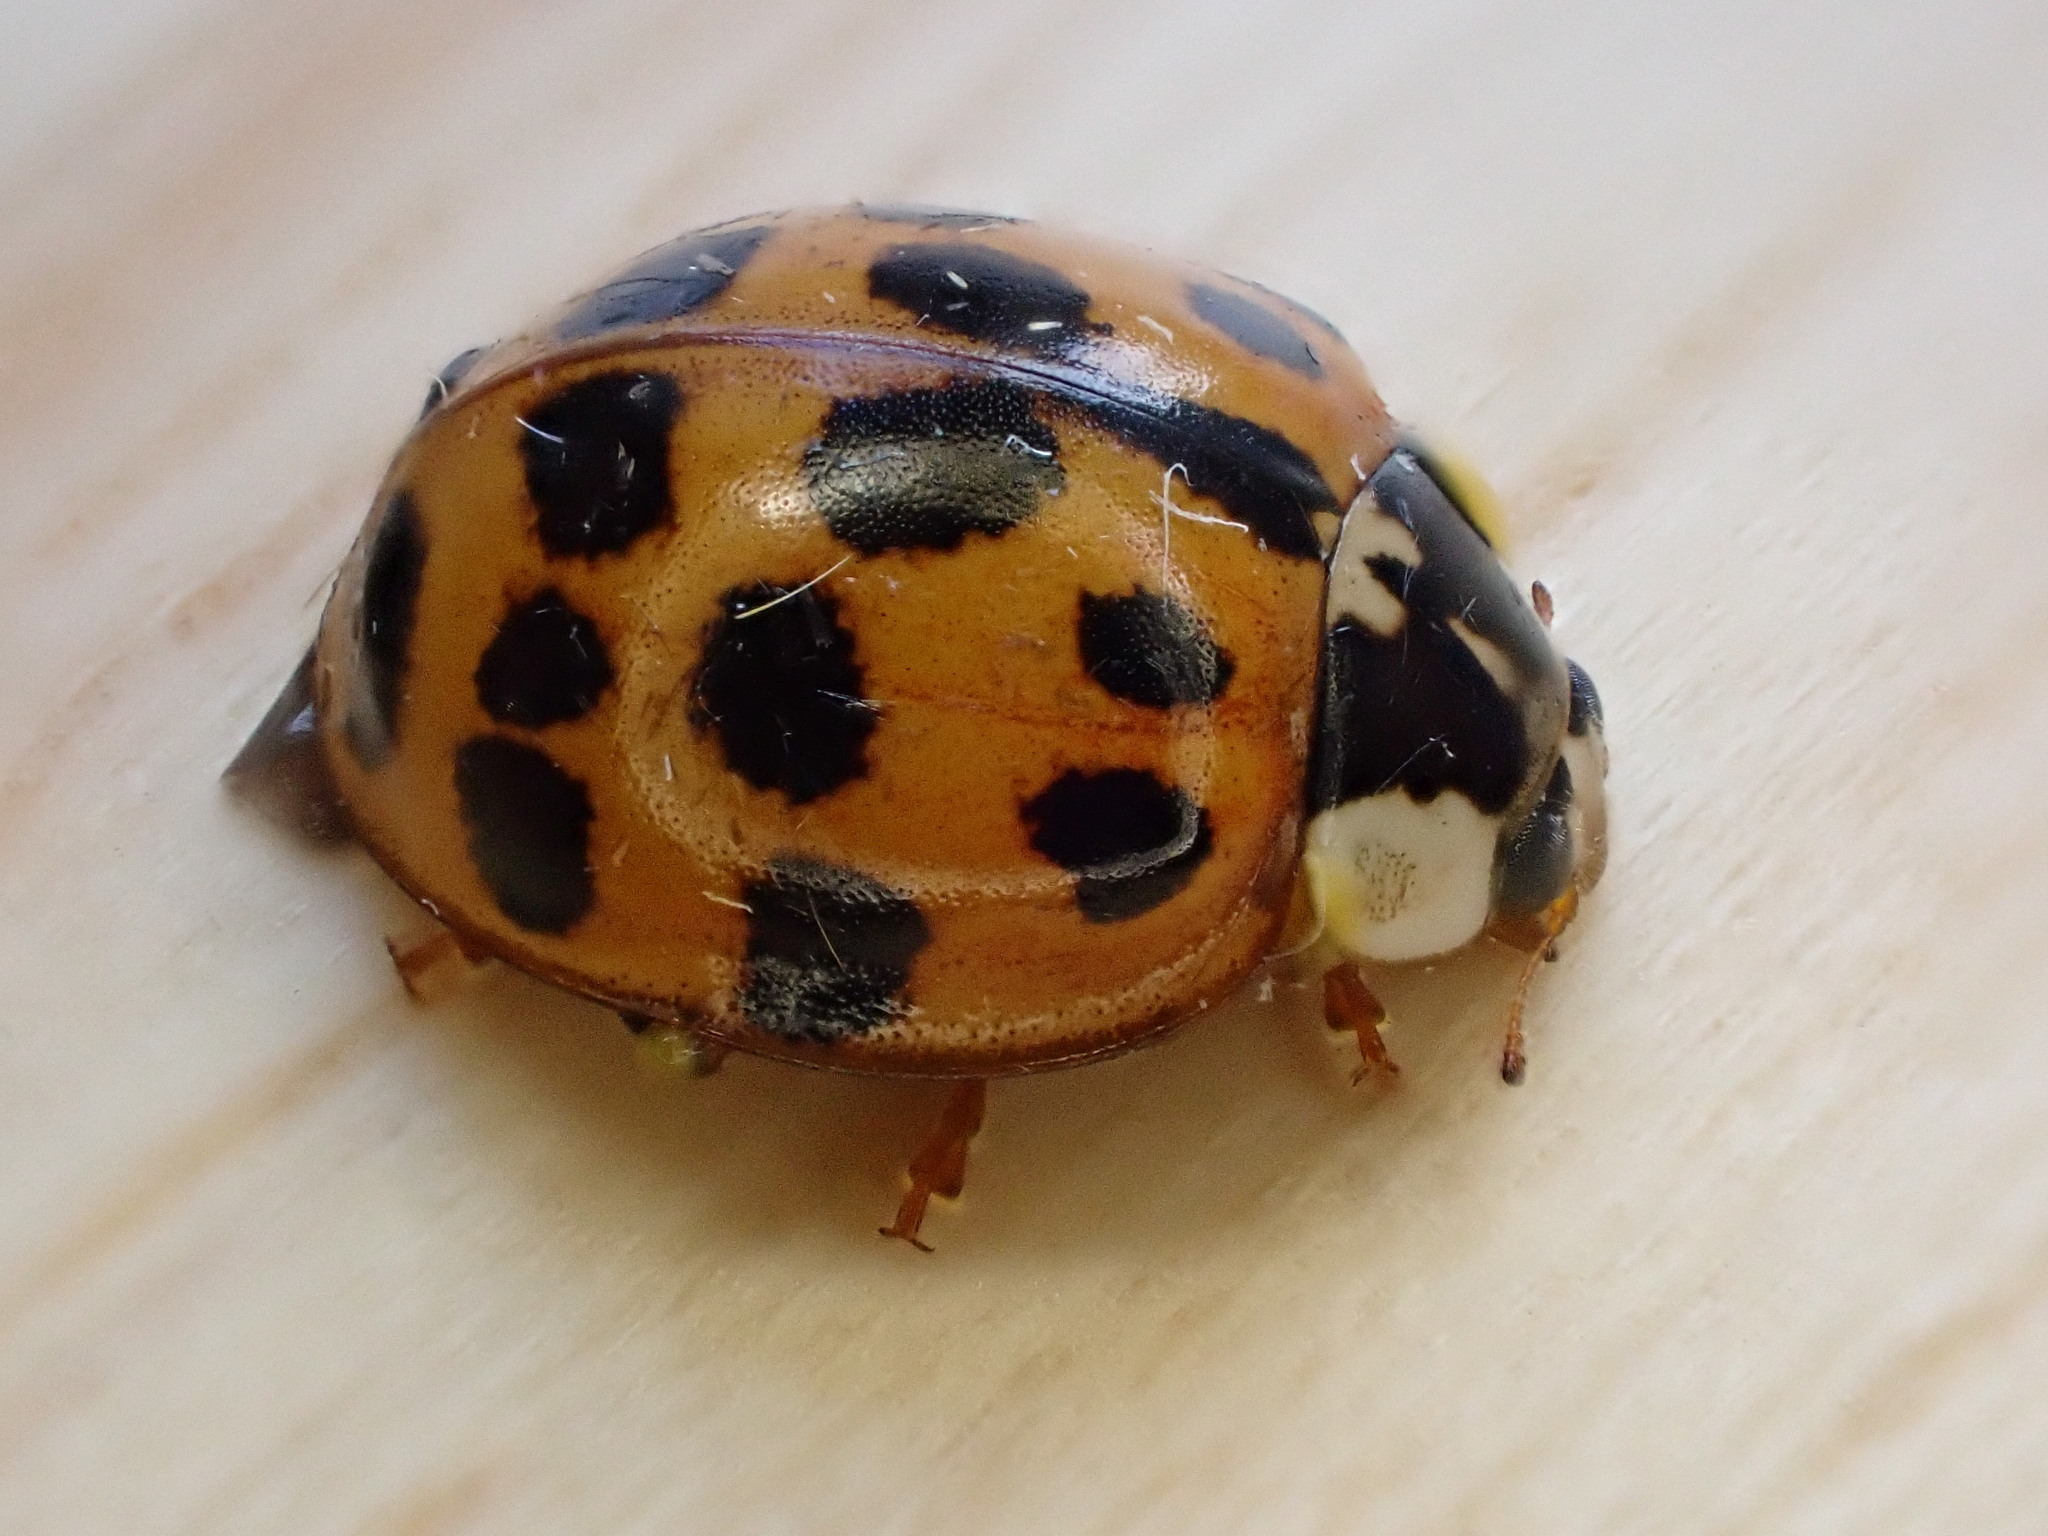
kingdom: Animalia
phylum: Arthropoda
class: Insecta
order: Coleoptera
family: Coccinellidae
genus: Harmonia
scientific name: Harmonia axyridis
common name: Harlequin ladybird
